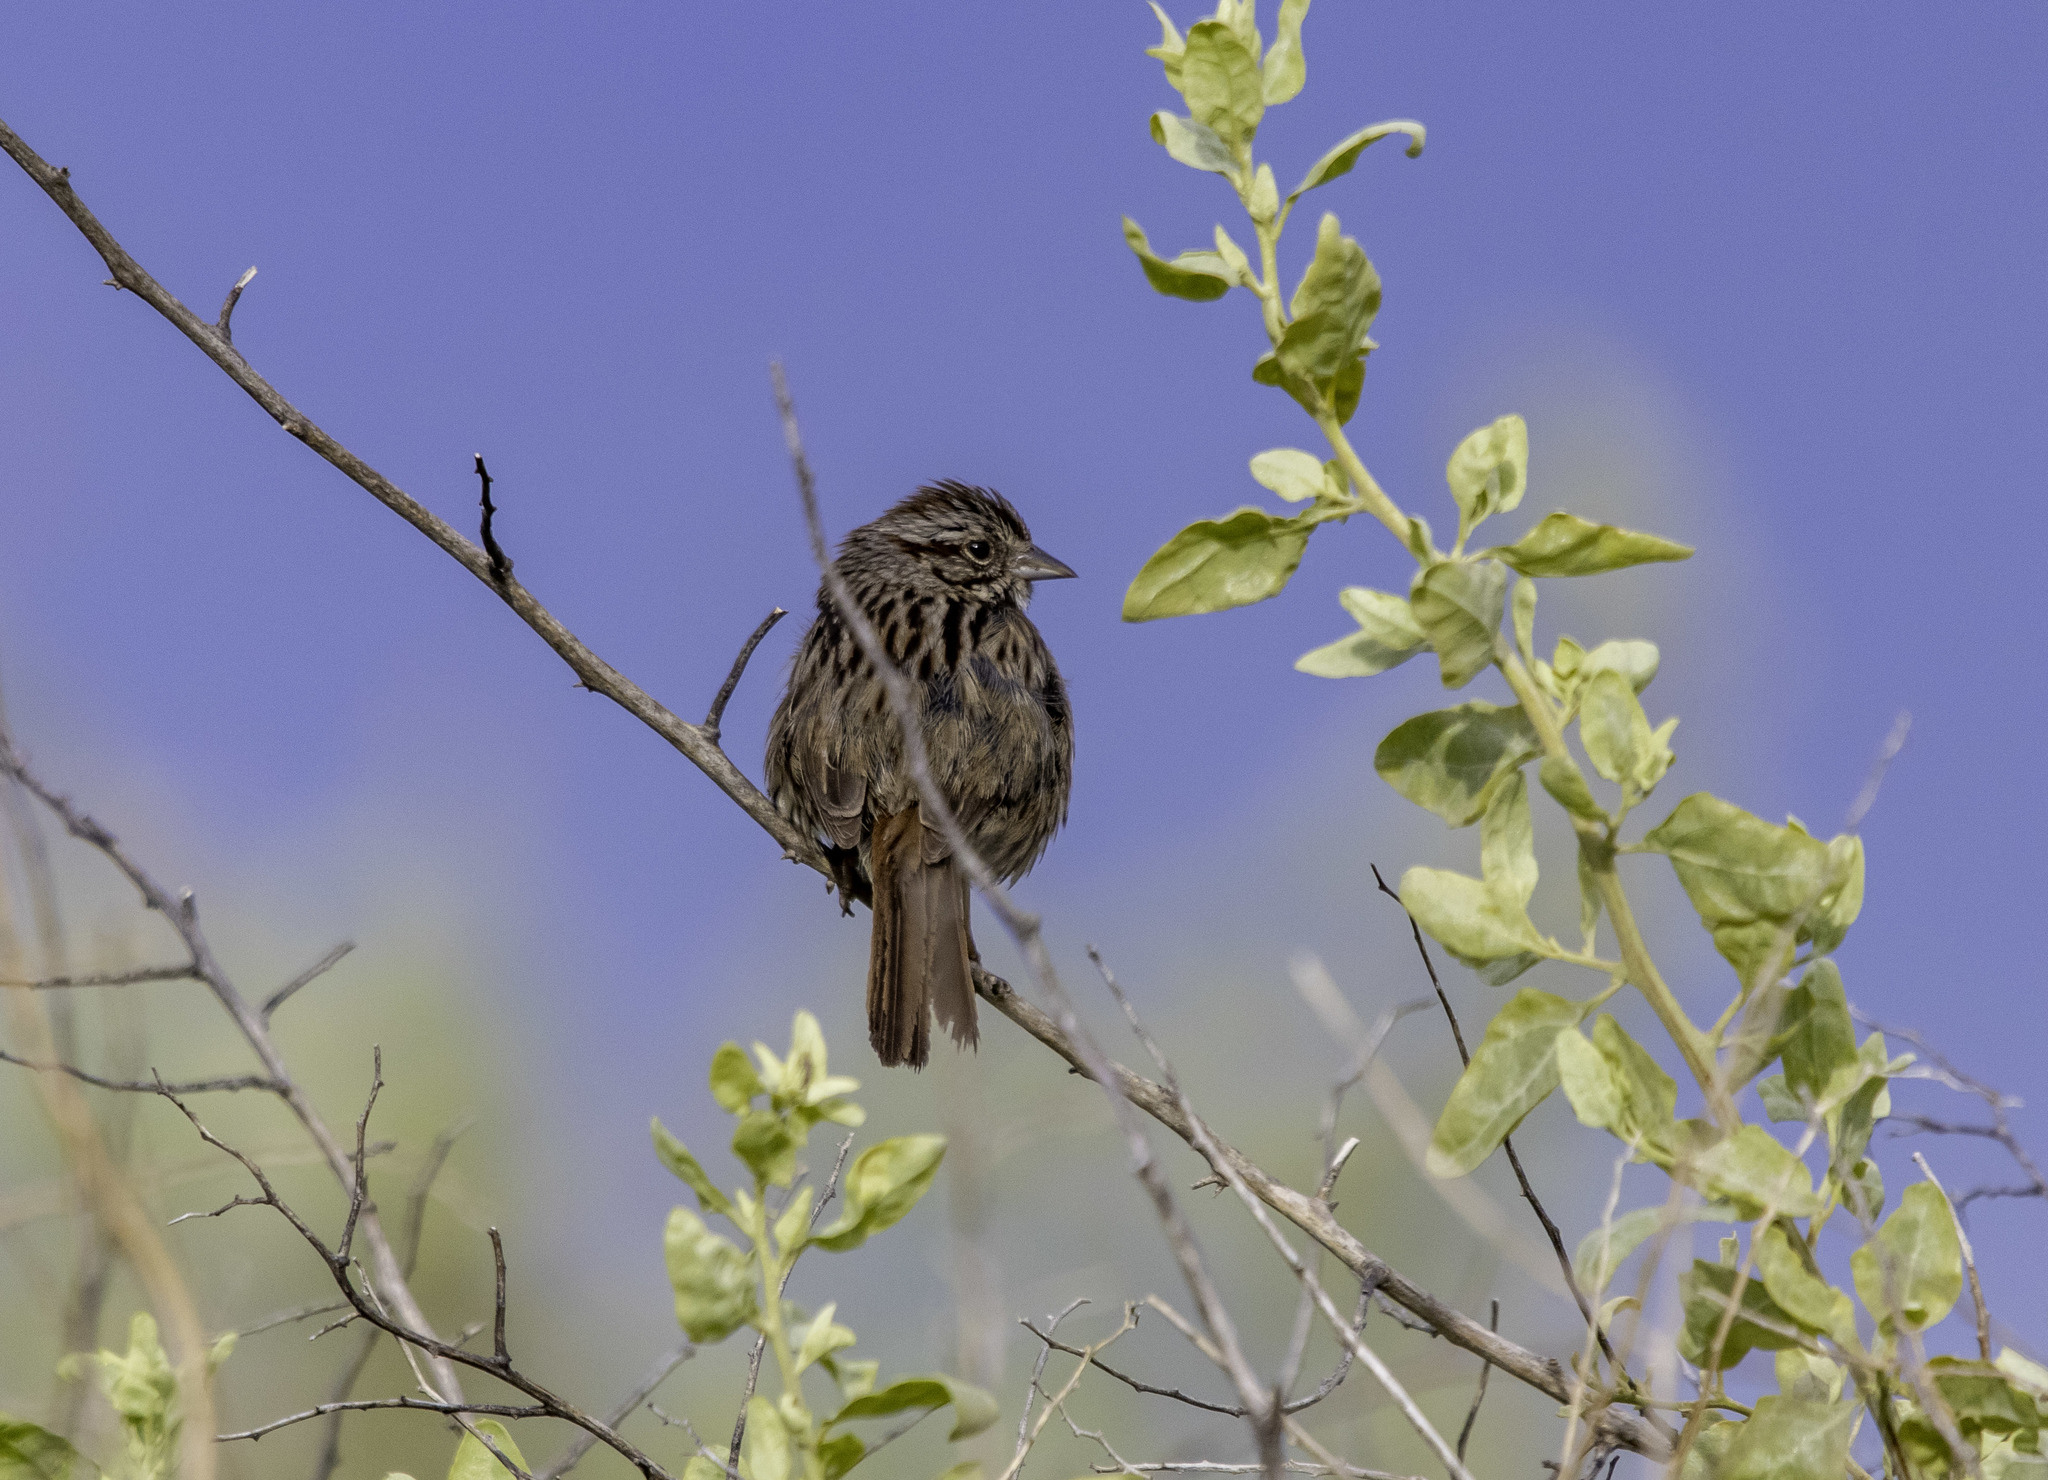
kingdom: Animalia
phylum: Chordata
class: Aves
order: Passeriformes
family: Passerellidae
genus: Melospiza
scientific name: Melospiza melodia
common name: Song sparrow
